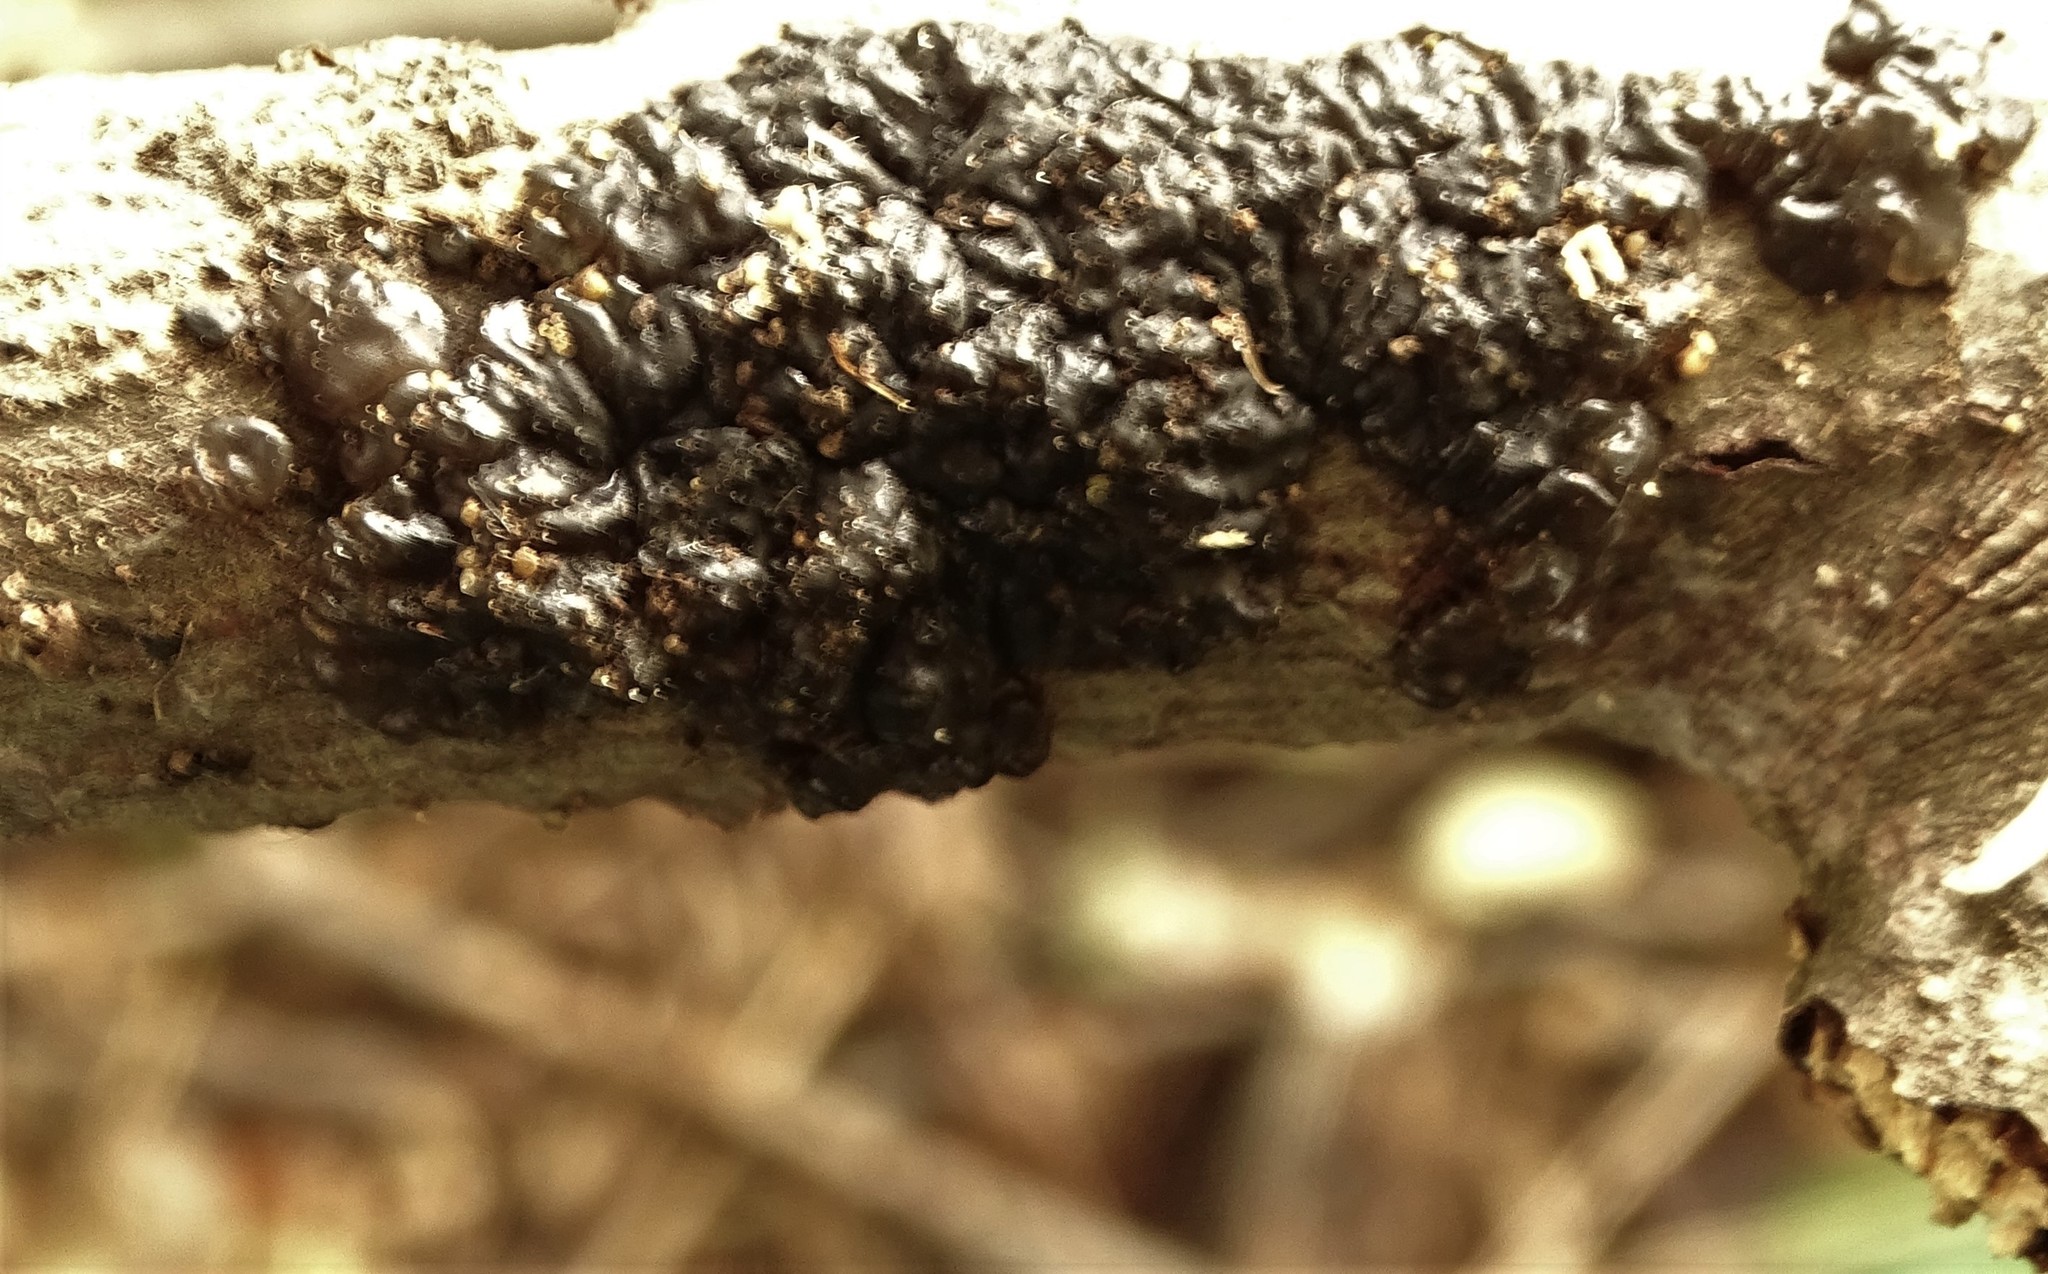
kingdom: Fungi
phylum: Ascomycota
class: Dothideomycetes
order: Venturiales
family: Venturiaceae
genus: Apiosporina
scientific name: Apiosporina morbosa
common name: Black knot
